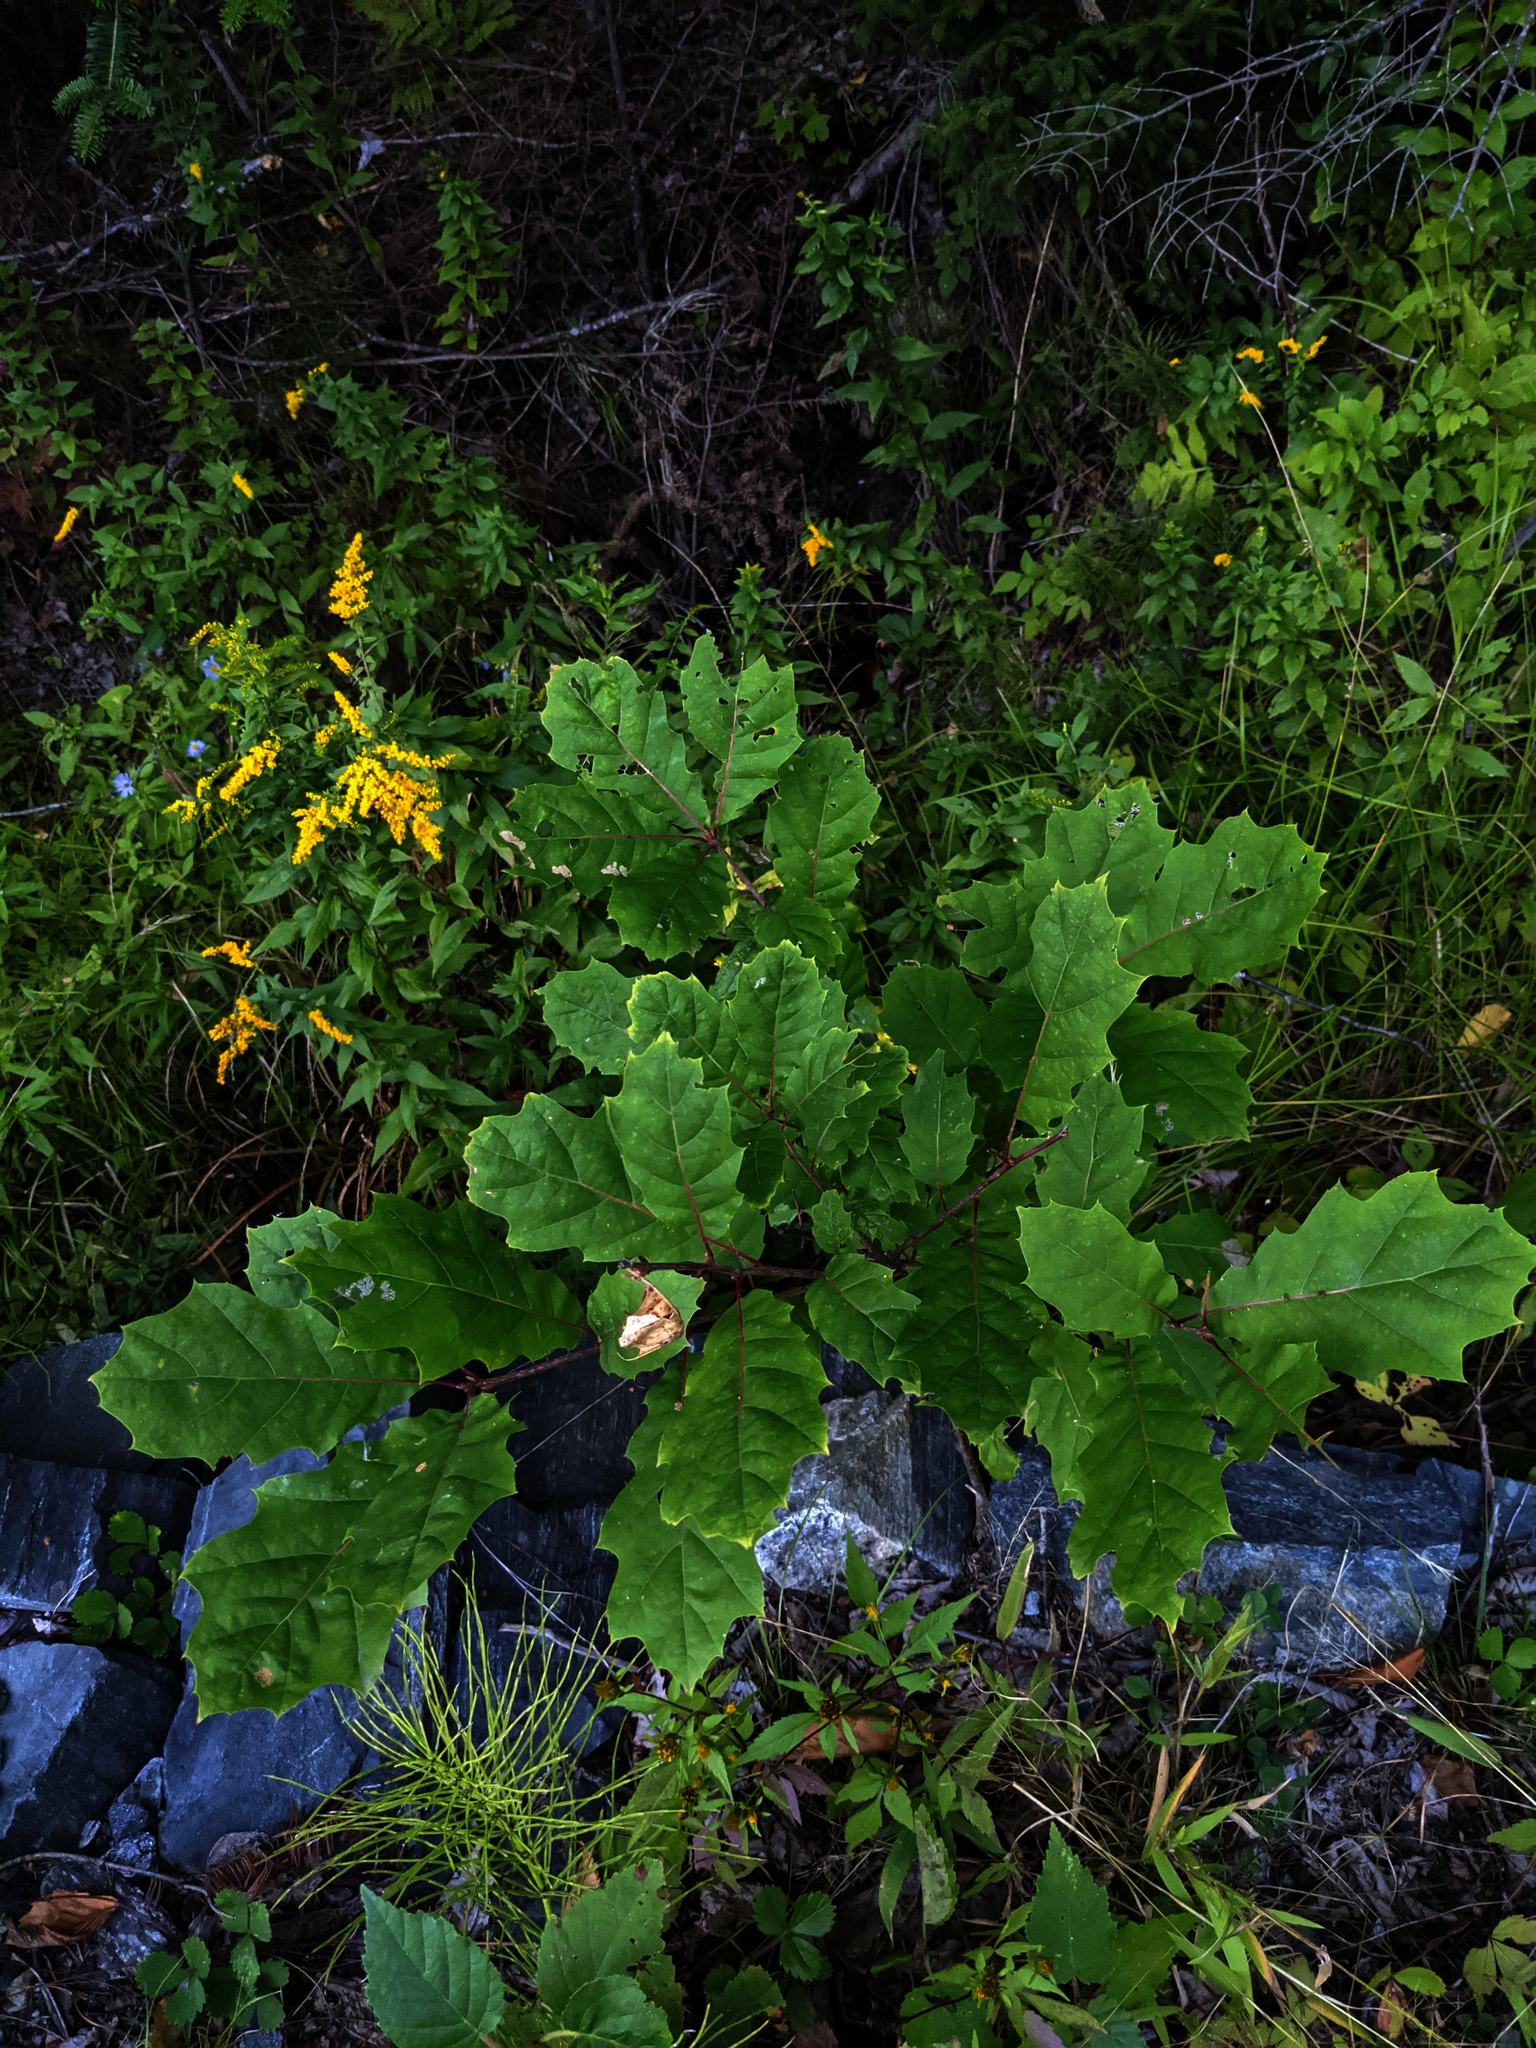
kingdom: Plantae
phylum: Tracheophyta
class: Magnoliopsida
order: Fagales
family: Fagaceae
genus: Quercus
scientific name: Quercus rubra
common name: Red oak
